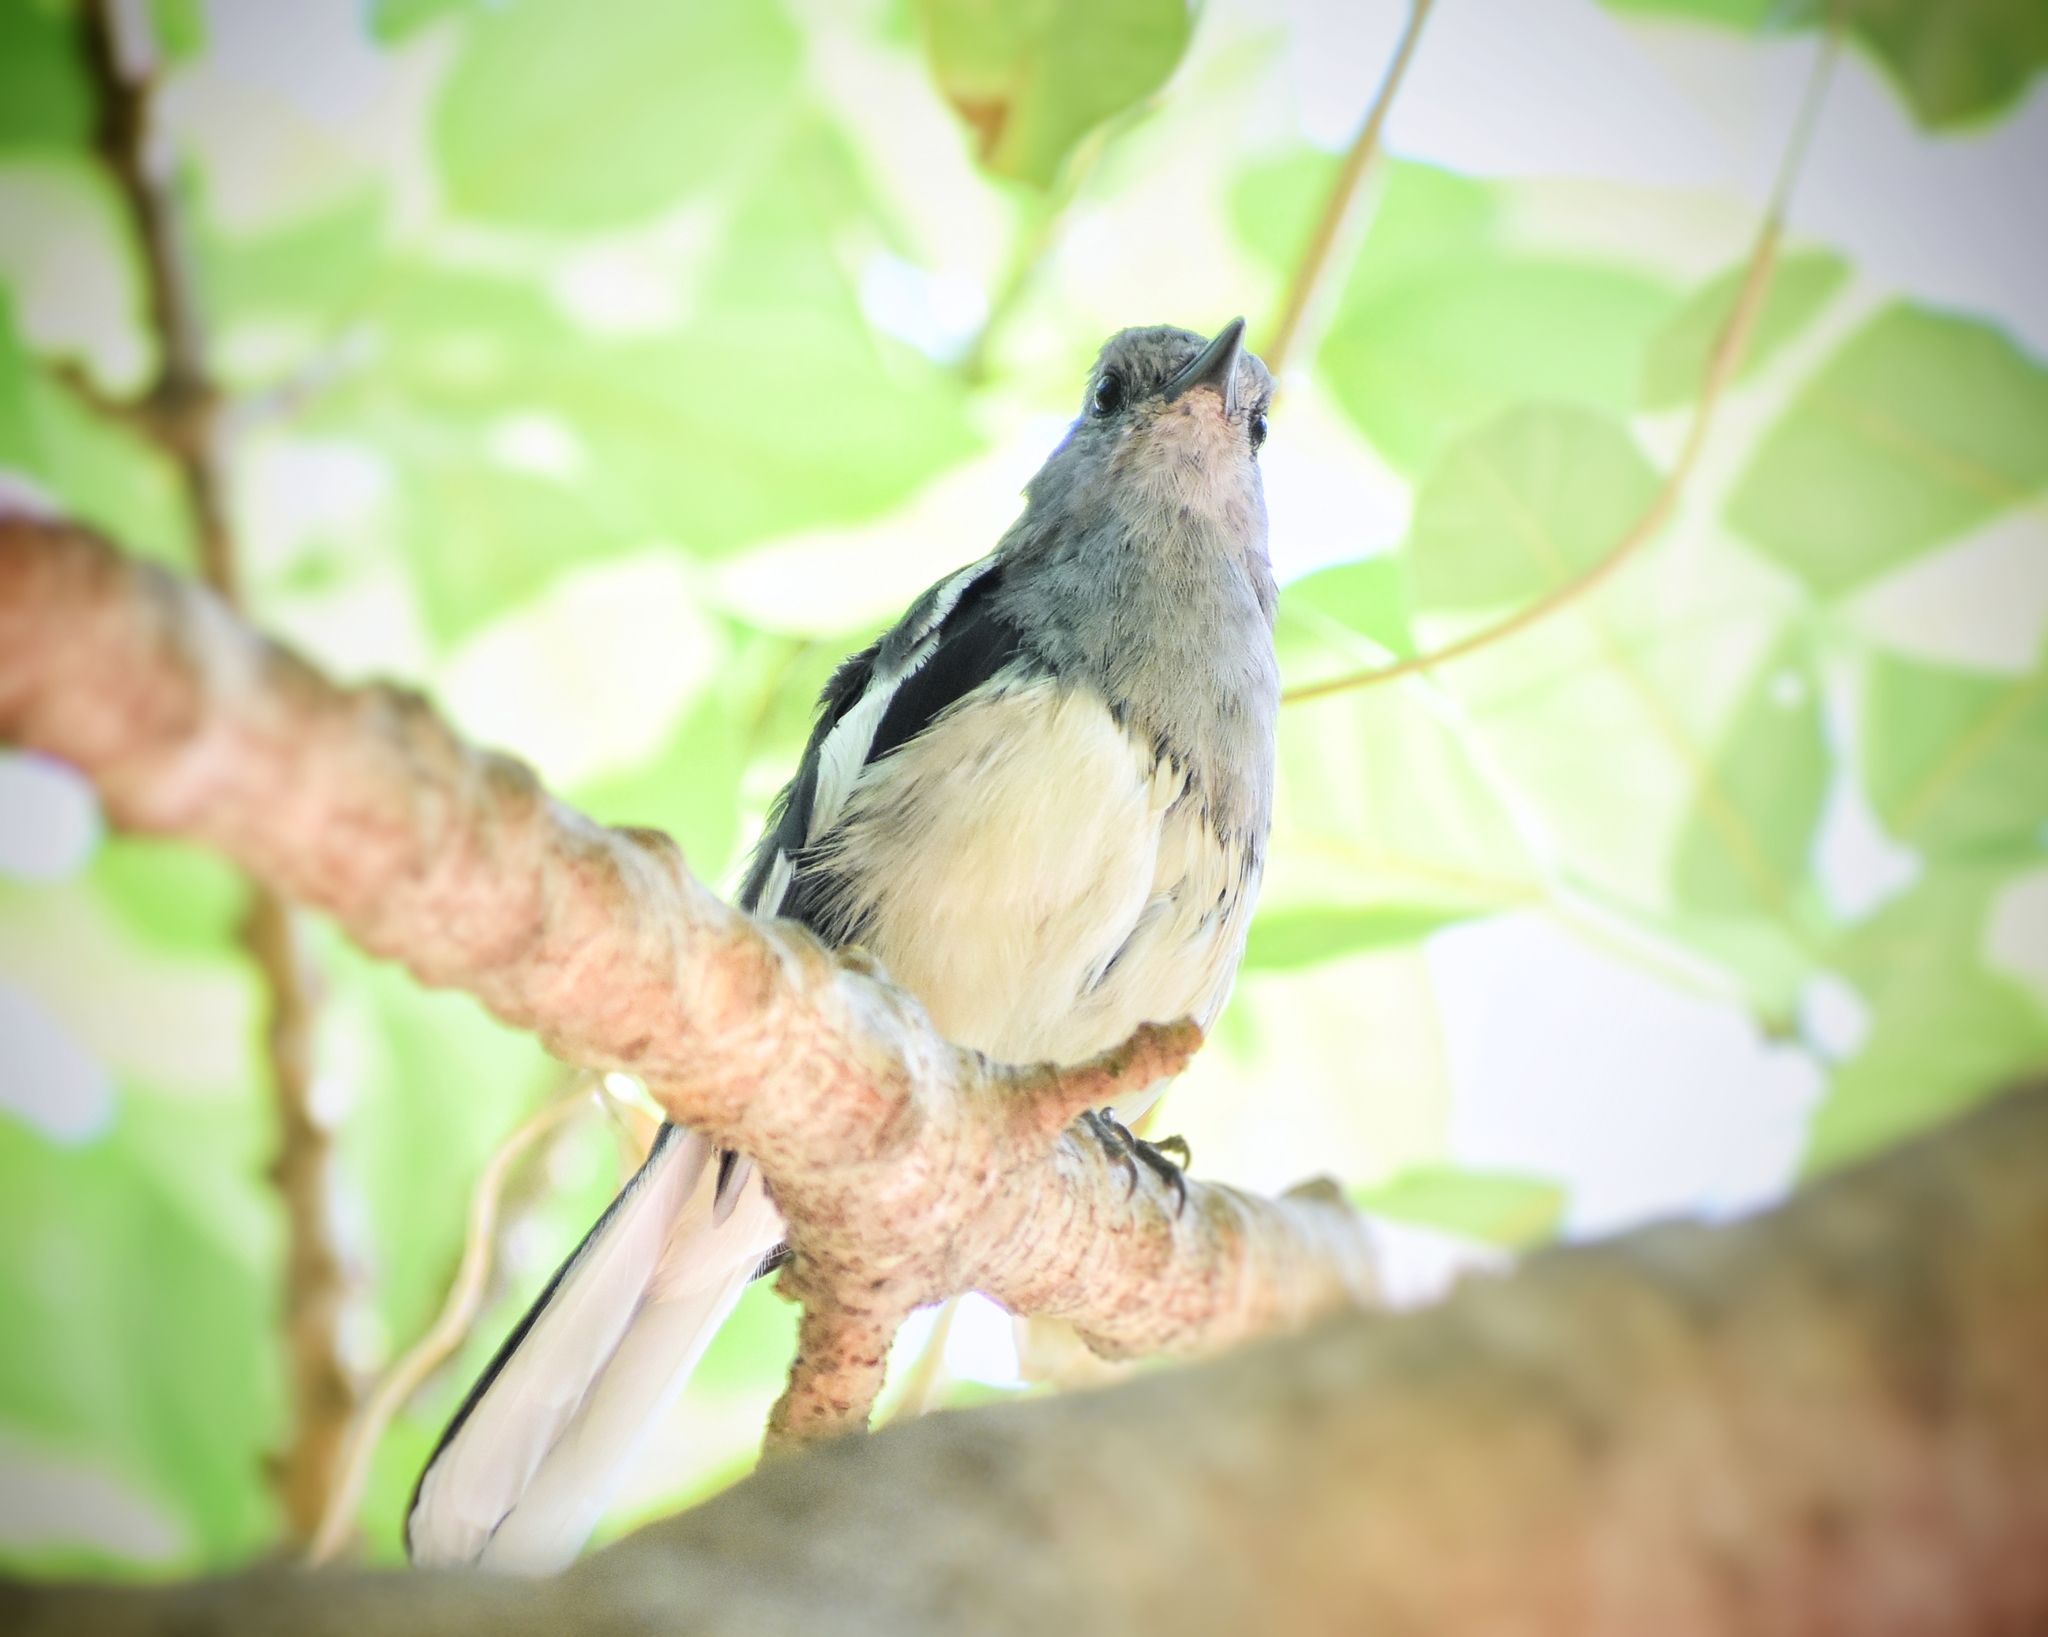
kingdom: Animalia
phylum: Chordata
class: Aves
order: Passeriformes
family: Muscicapidae
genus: Copsychus
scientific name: Copsychus saularis
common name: Oriental magpie-robin
